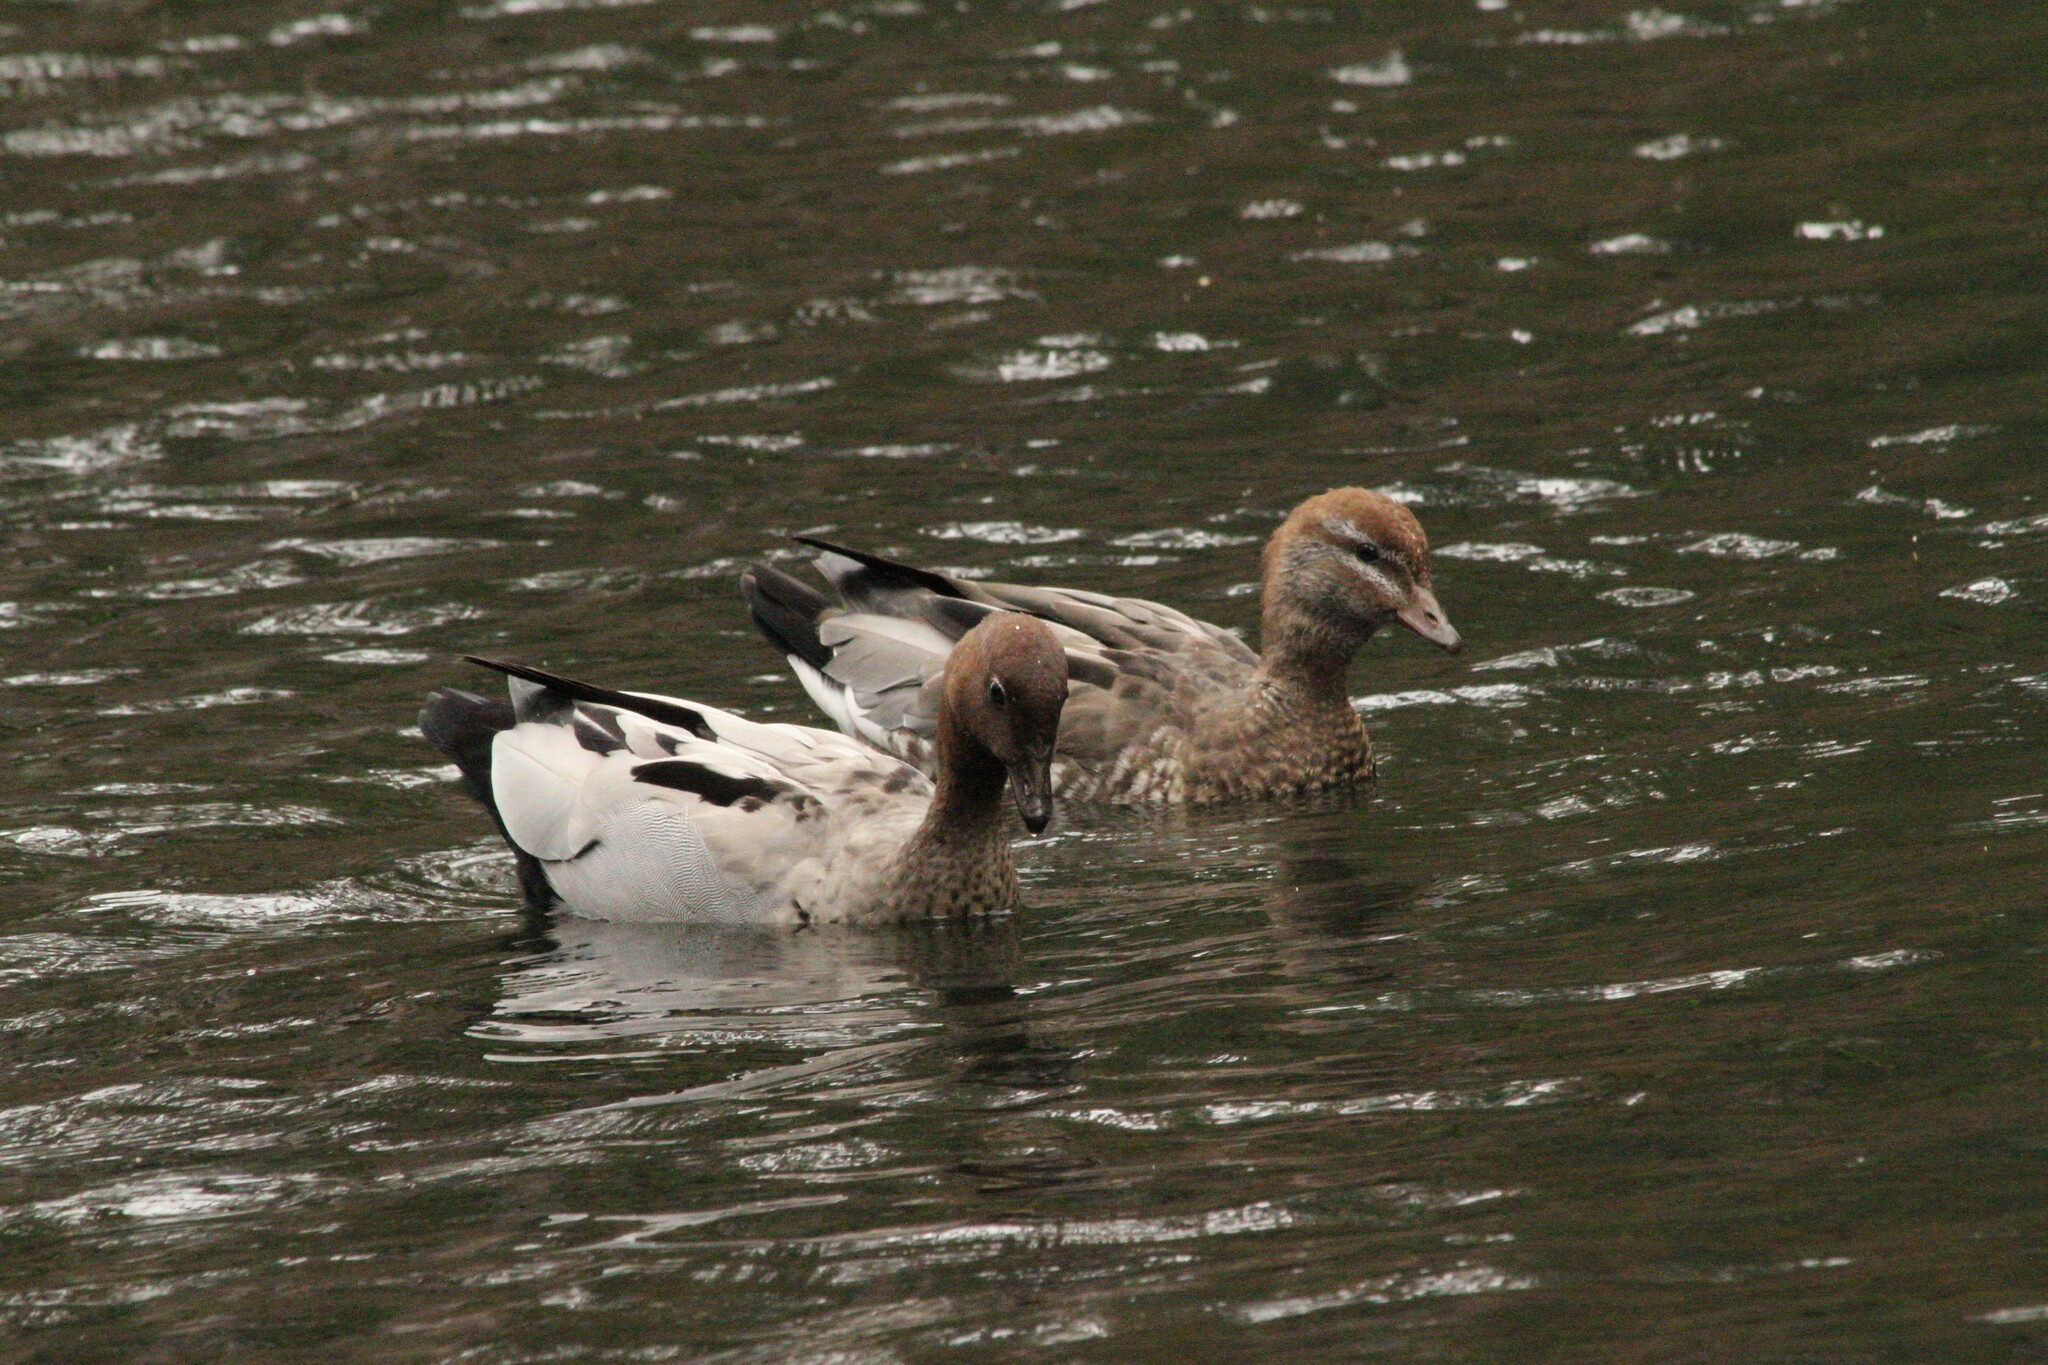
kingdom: Animalia
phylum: Chordata
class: Aves
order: Anseriformes
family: Anatidae
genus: Chenonetta
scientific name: Chenonetta jubata
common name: Maned duck
